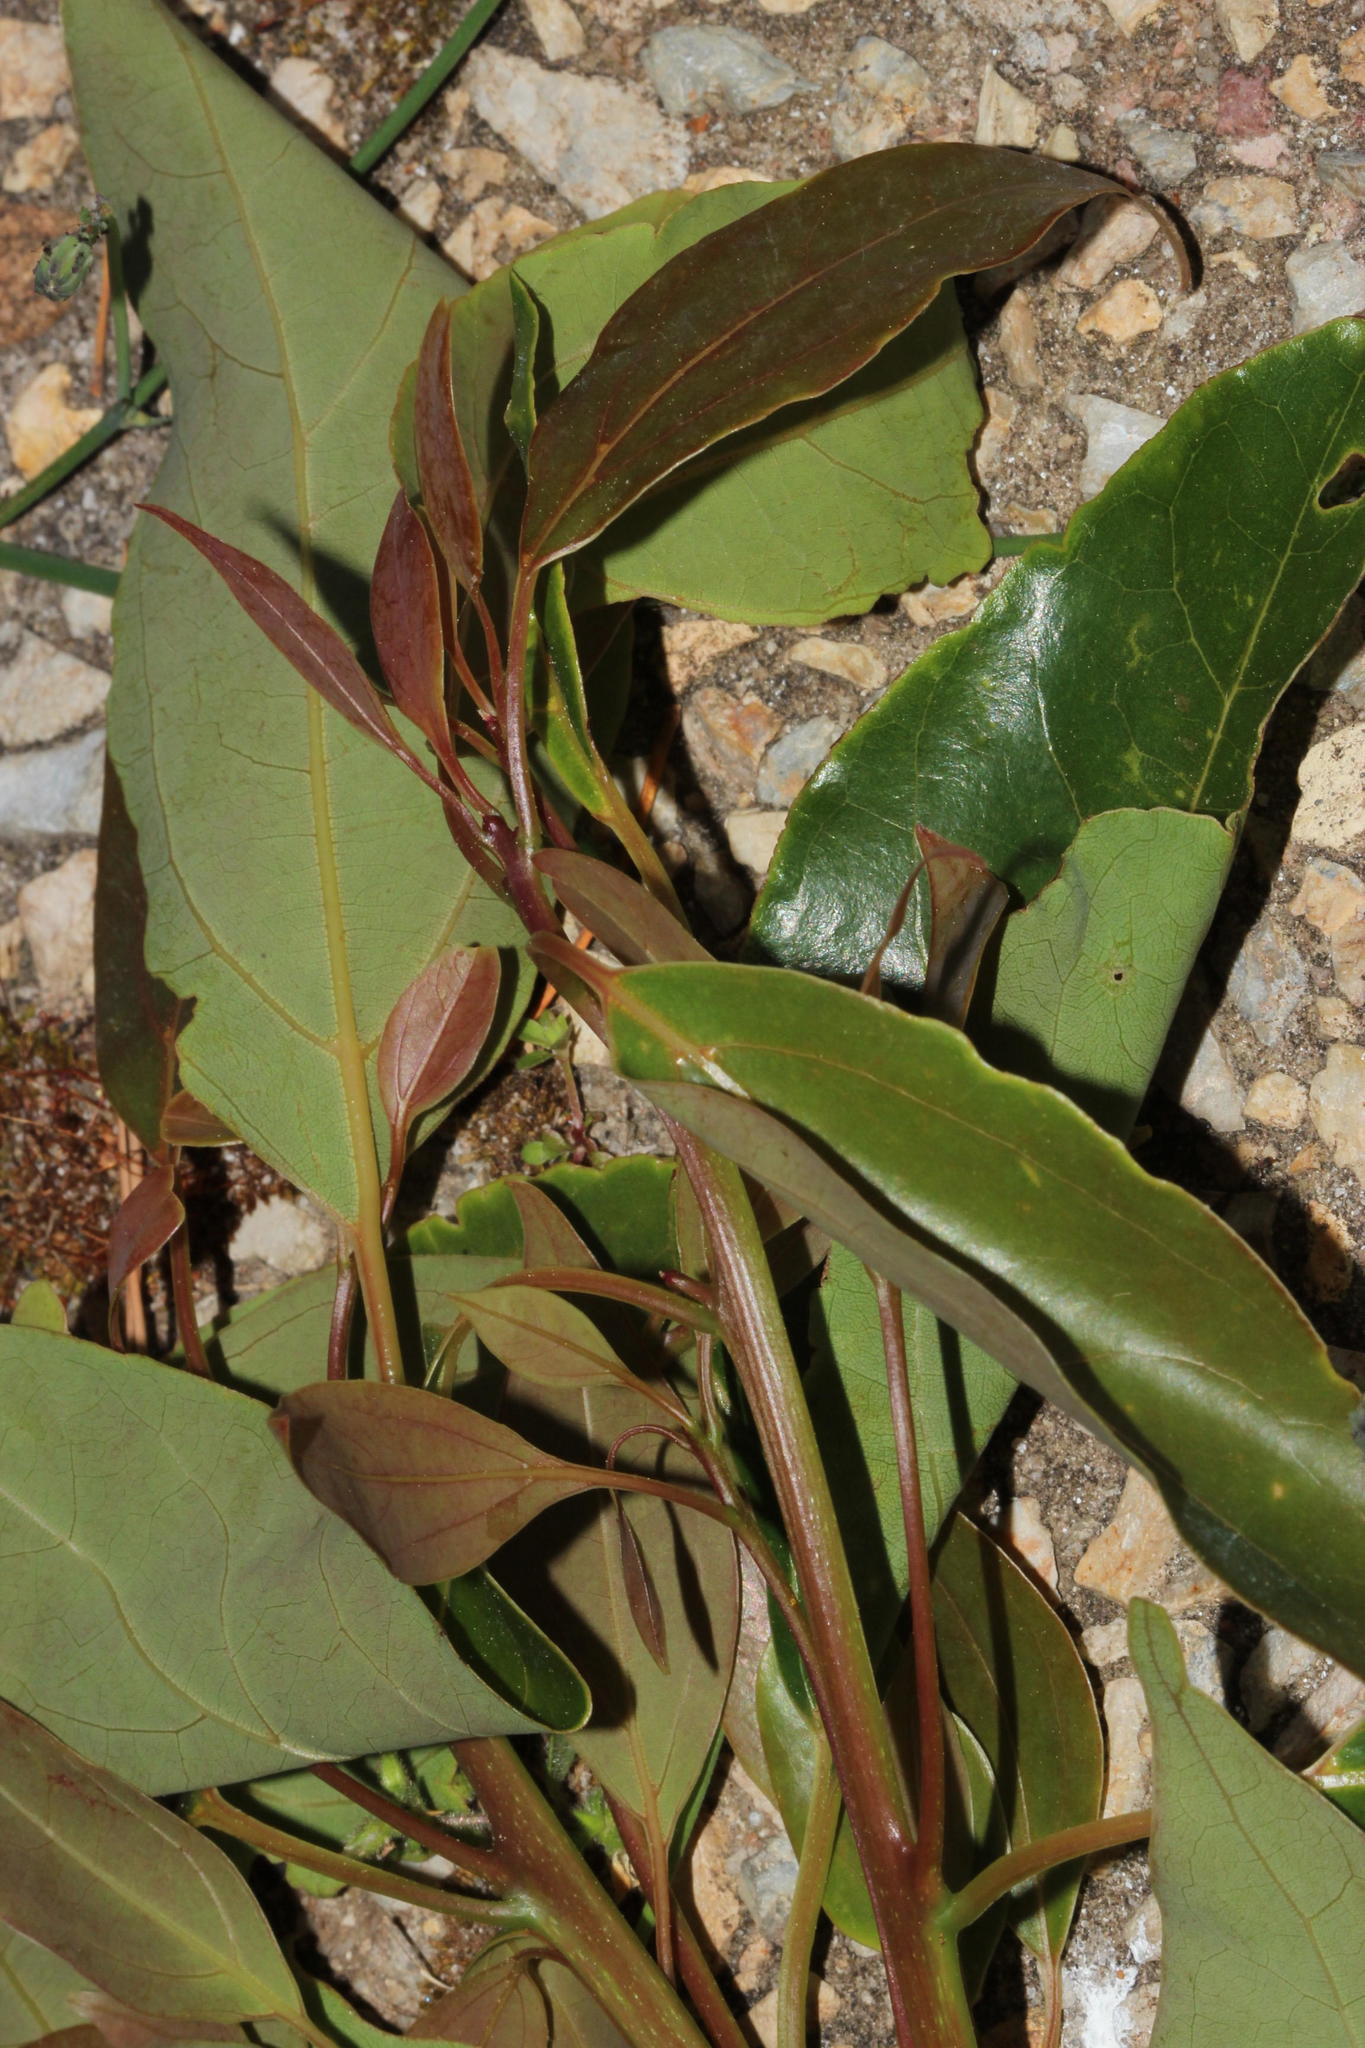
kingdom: Plantae
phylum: Tracheophyta
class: Magnoliopsida
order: Laurales
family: Lauraceae
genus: Cinnamomum
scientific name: Cinnamomum camphora
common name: Camphortree
